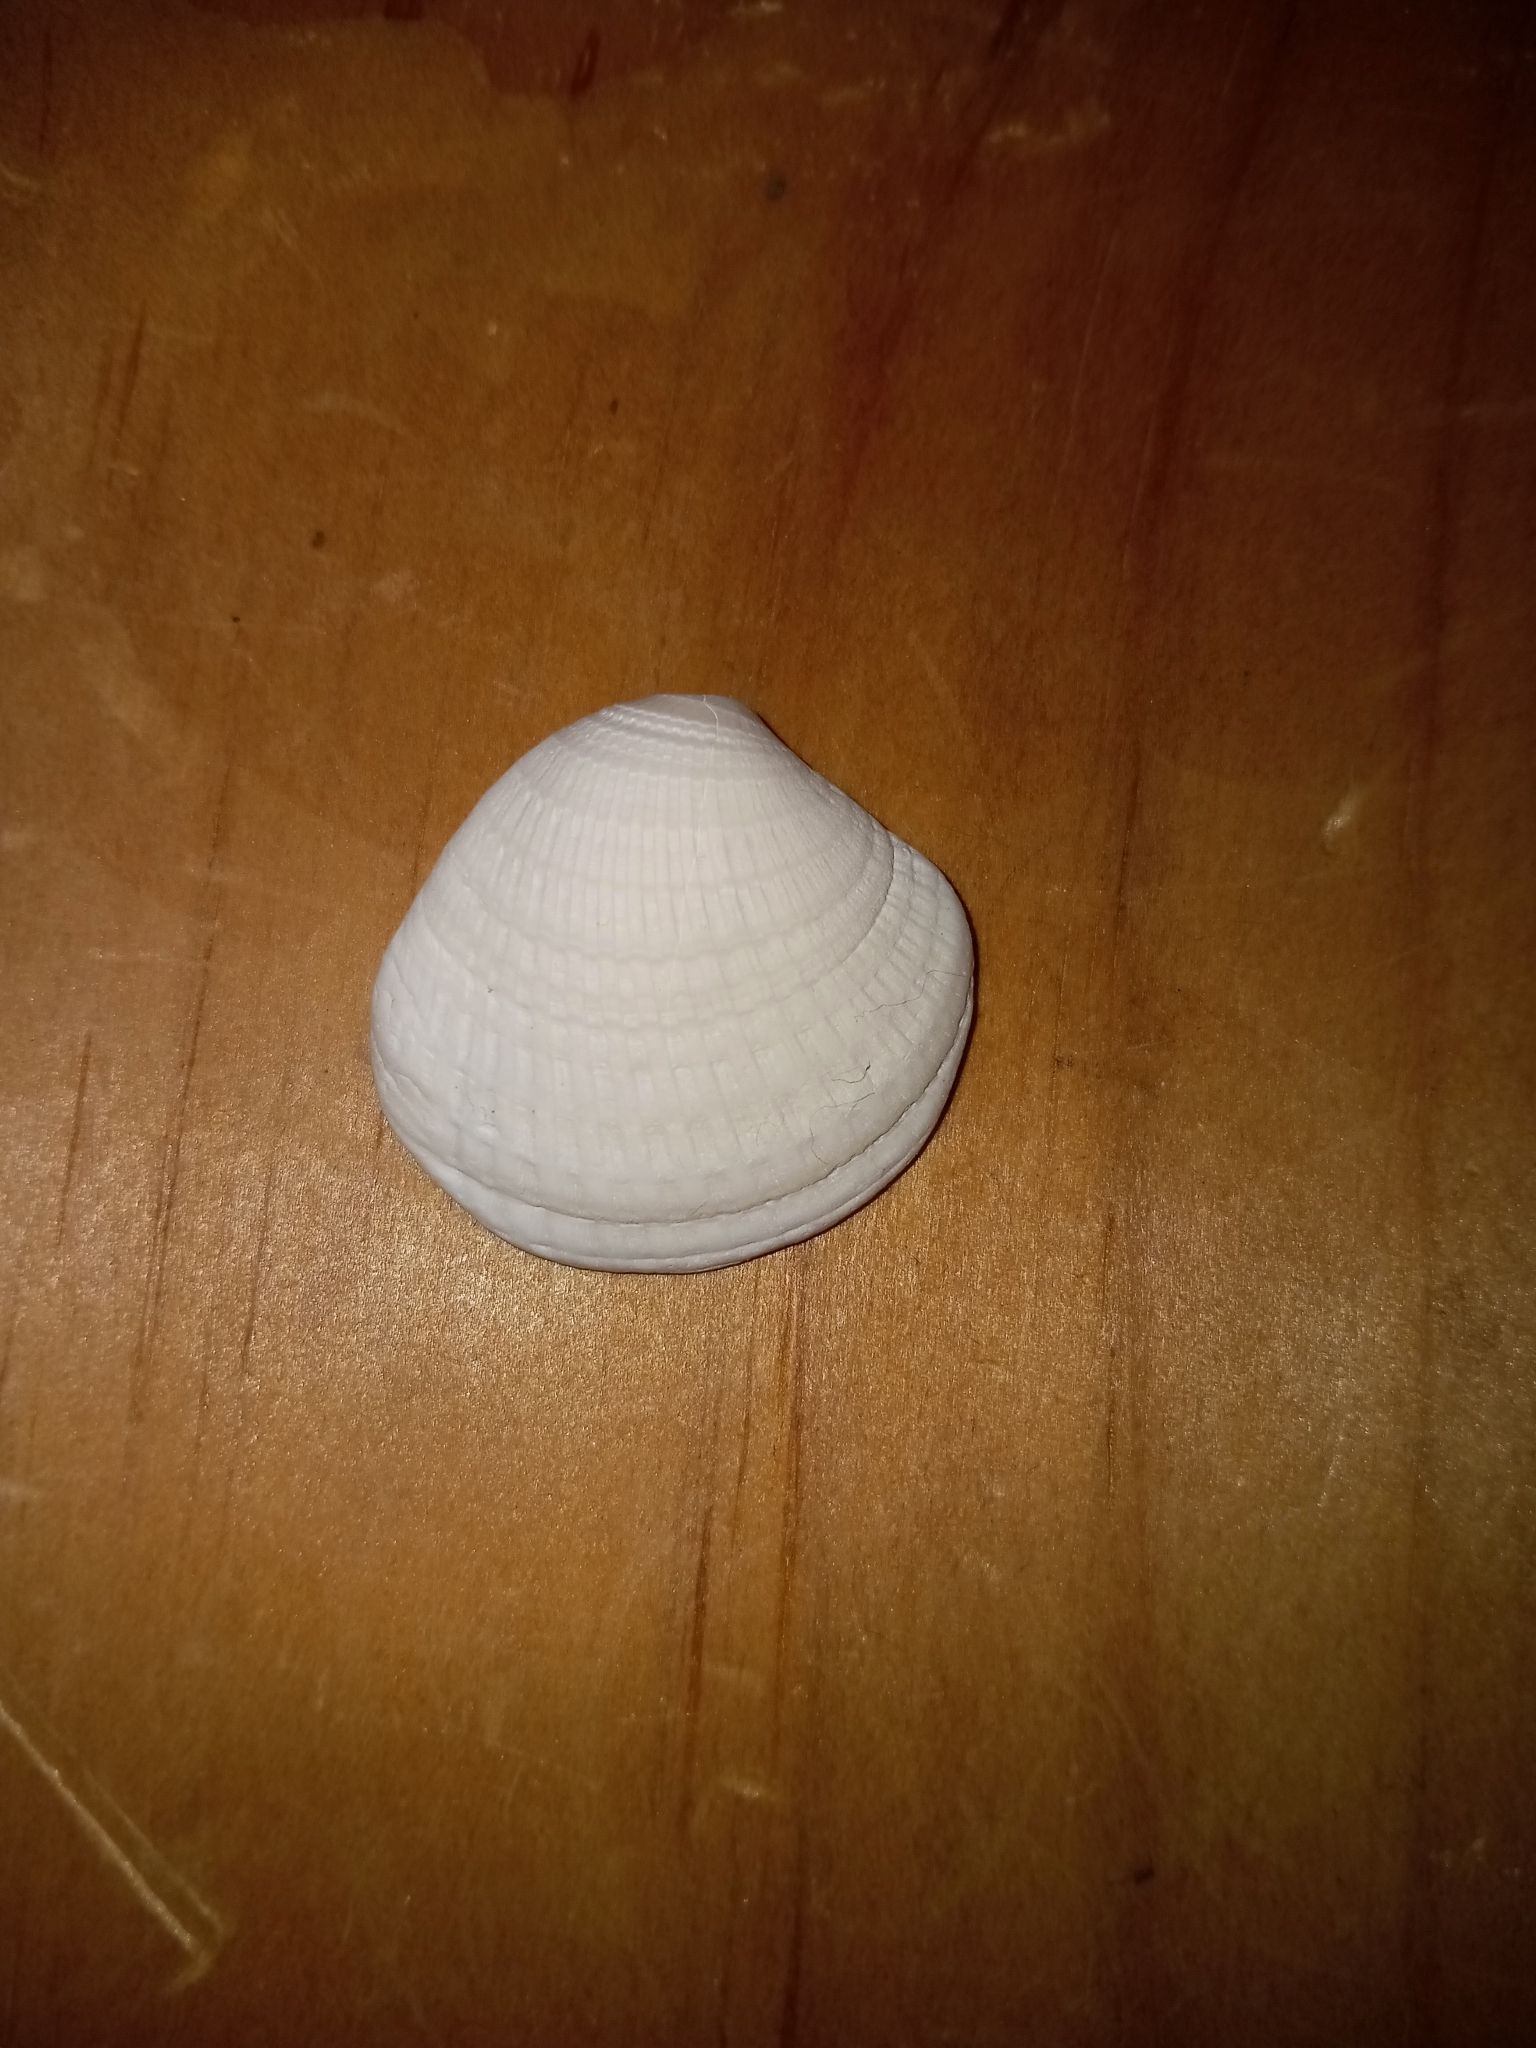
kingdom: Animalia
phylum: Mollusca
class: Bivalvia
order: Venerida
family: Veneridae
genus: Chione
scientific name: Chione elevata
